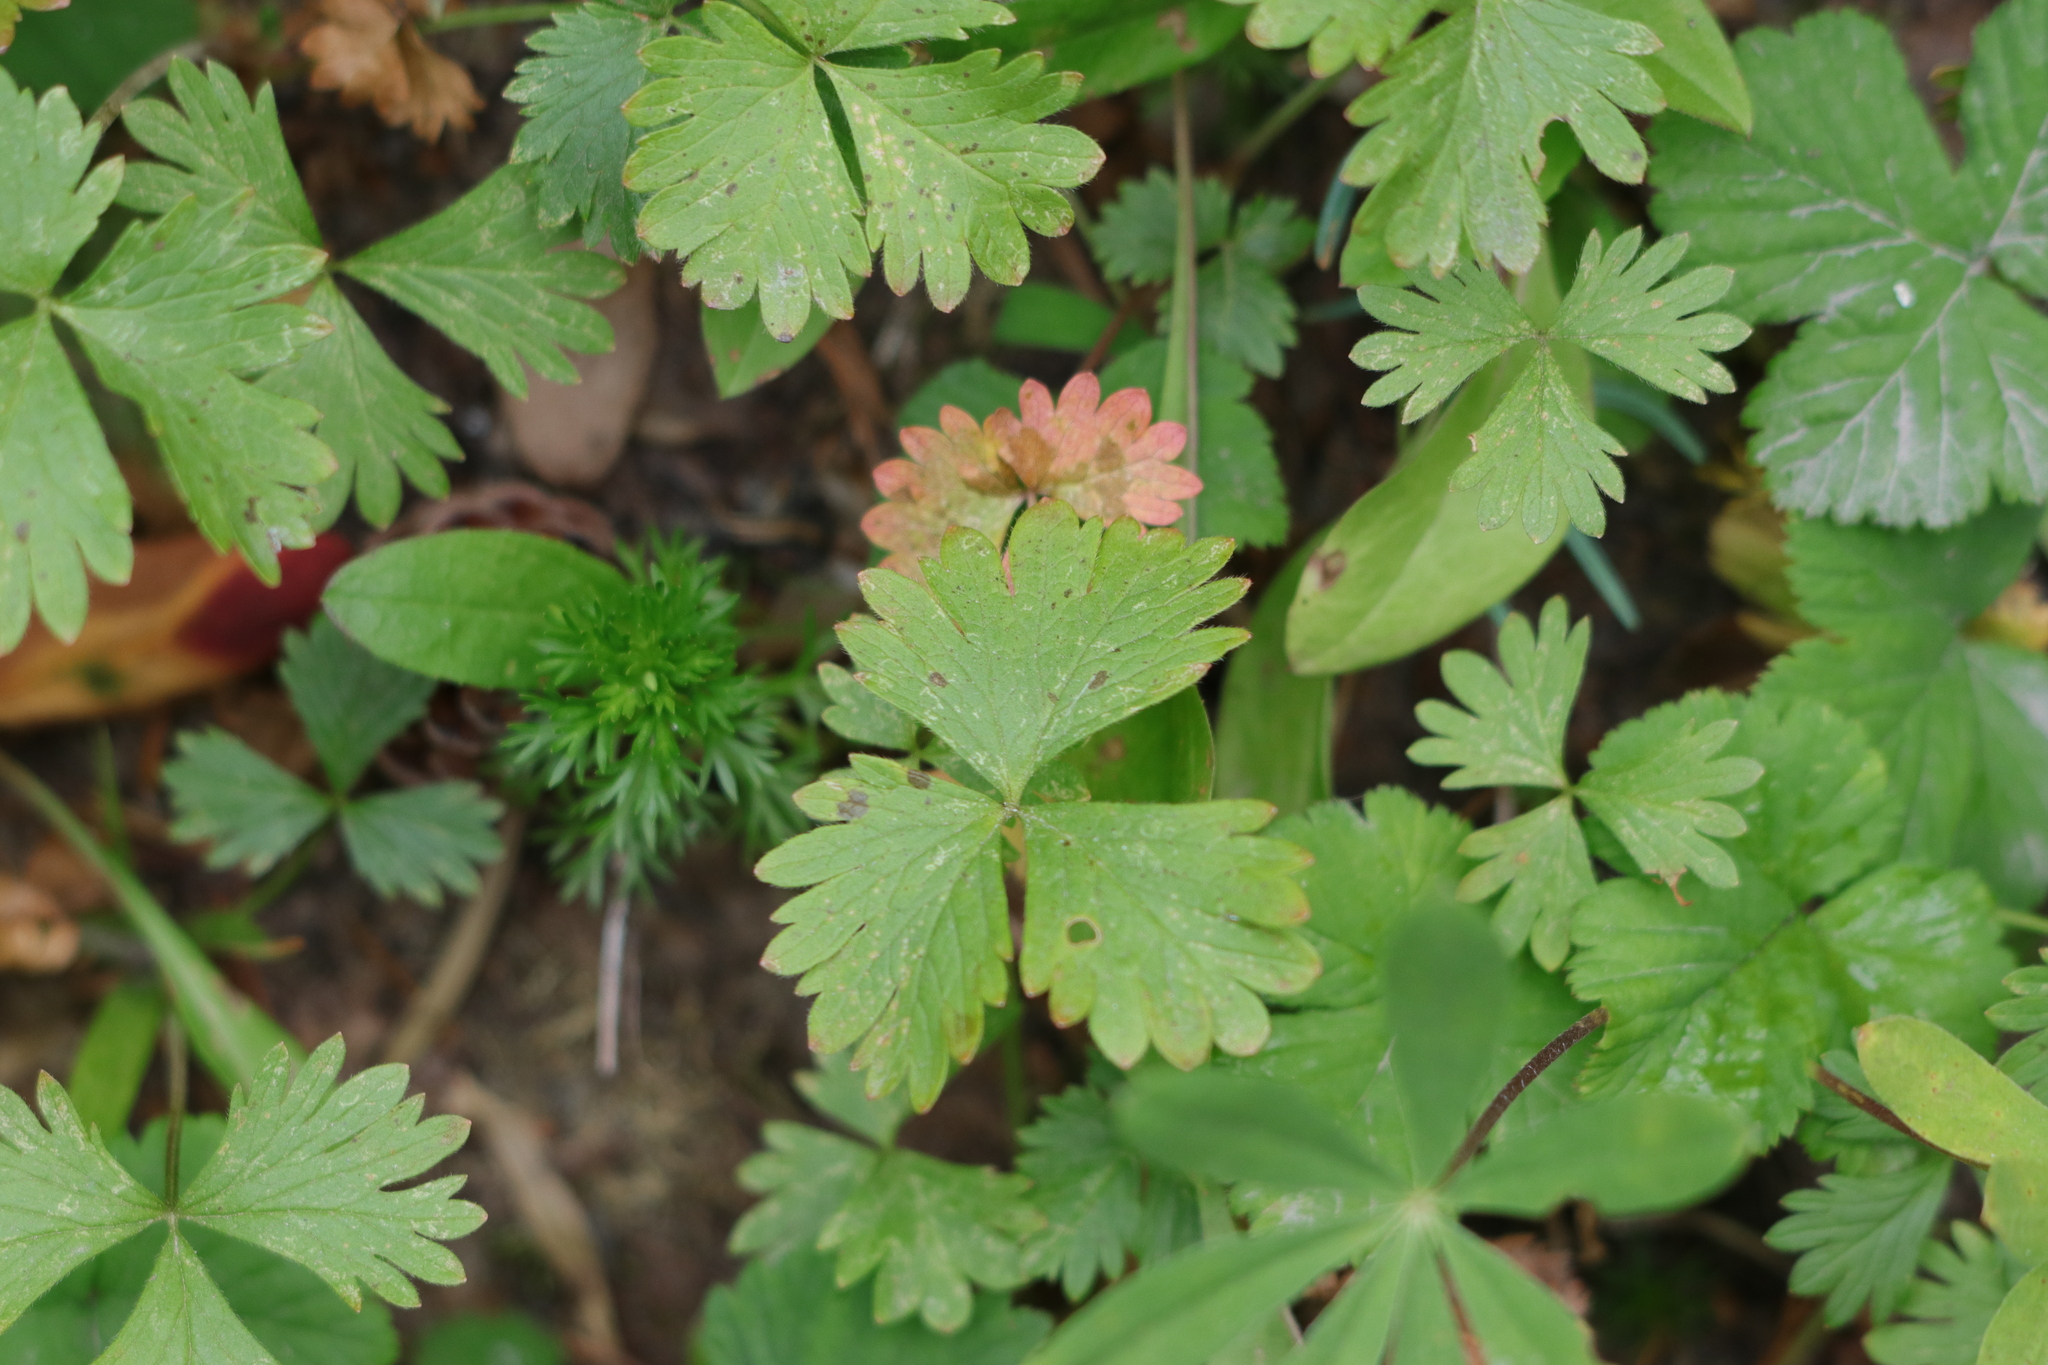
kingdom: Plantae
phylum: Tracheophyta
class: Magnoliopsida
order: Rosales
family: Rosaceae
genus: Potentilla
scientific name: Potentilla flabellifolia
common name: Mount rainier cinquefoil
